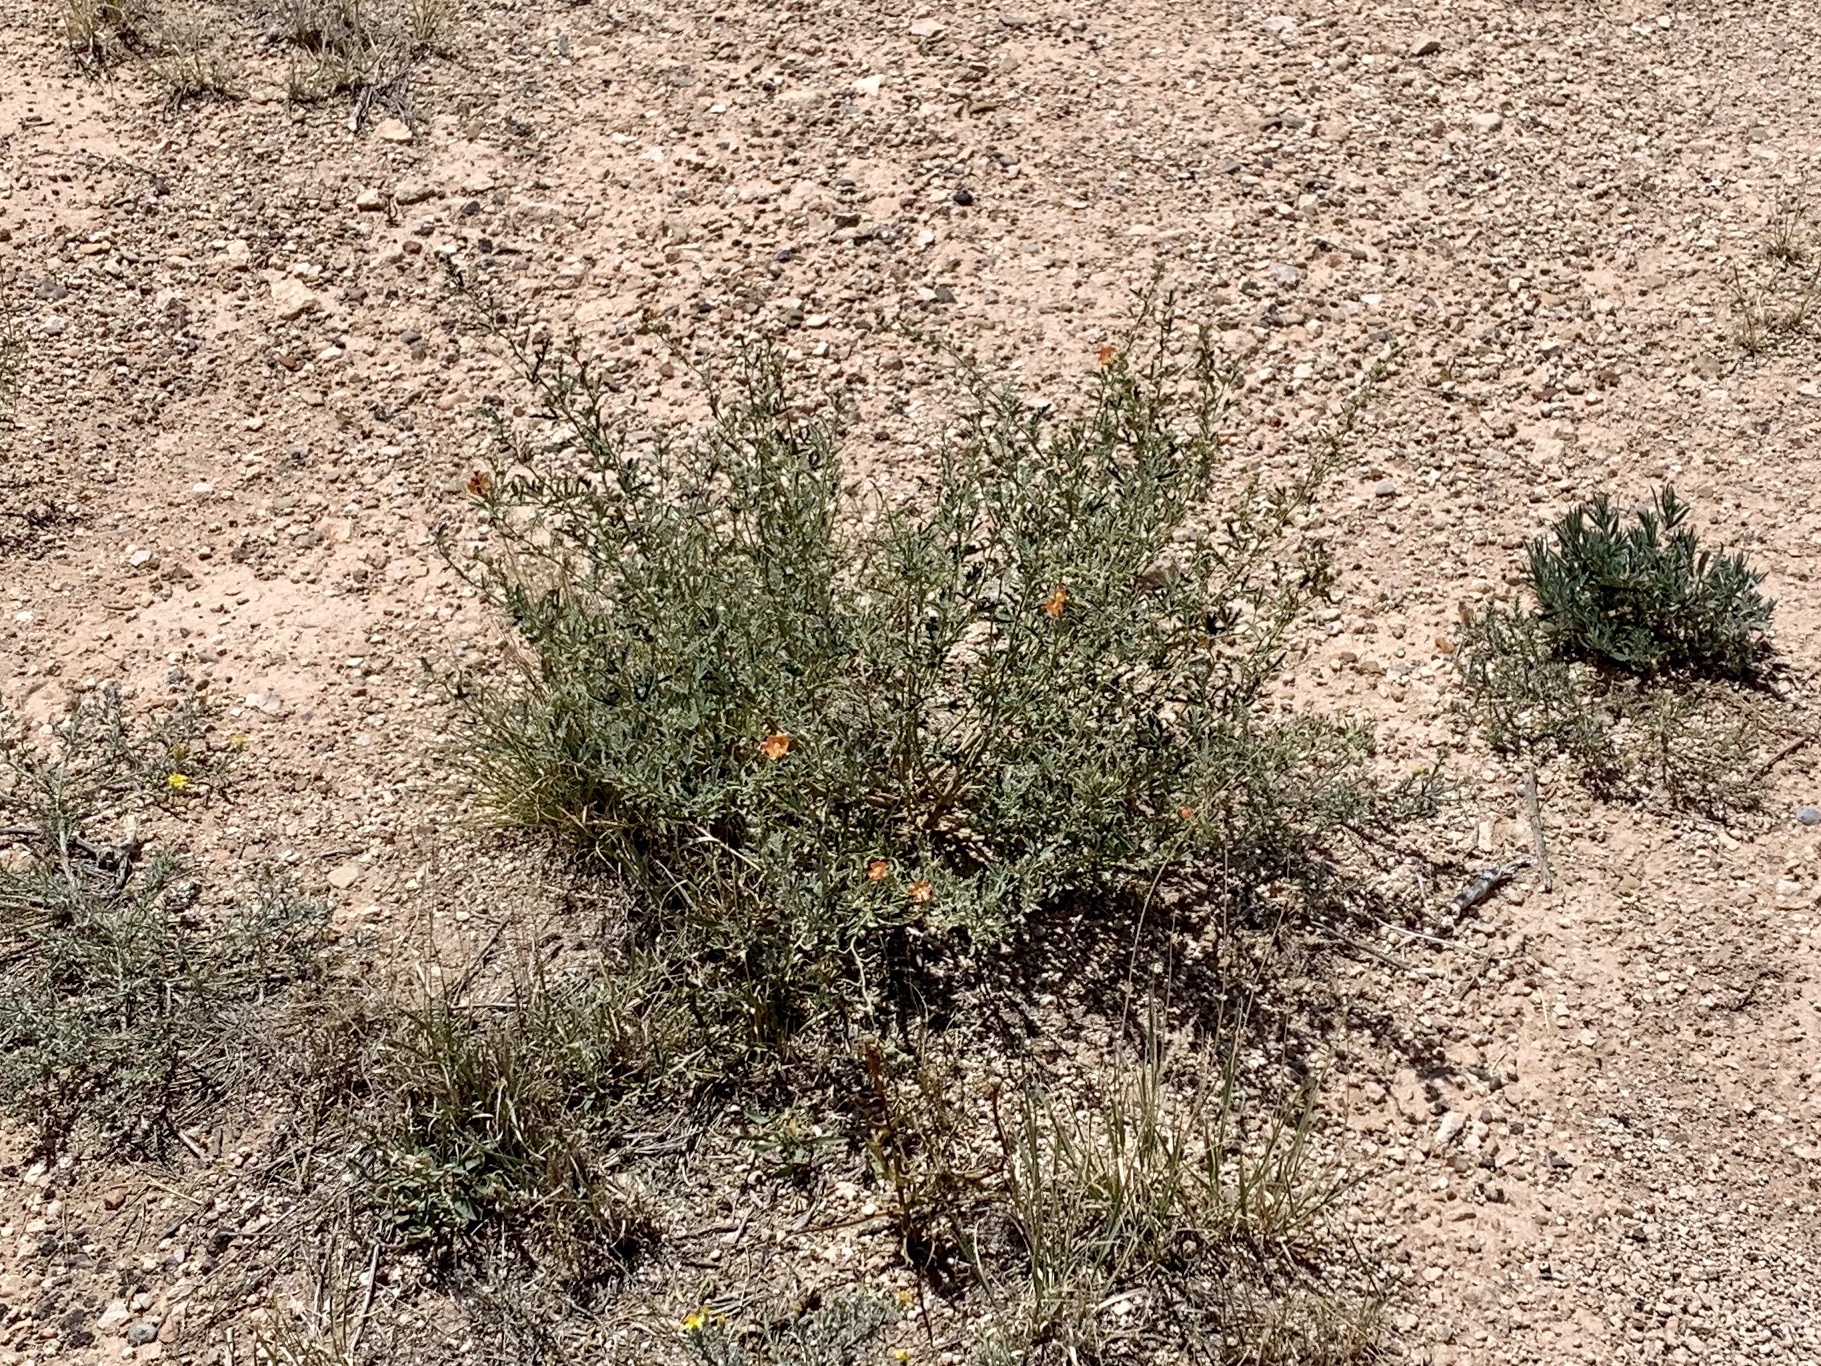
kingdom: Plantae
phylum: Tracheophyta
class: Magnoliopsida
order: Malvales
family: Malvaceae
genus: Sphaeralcea
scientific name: Sphaeralcea coccinea
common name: Moss-rose
